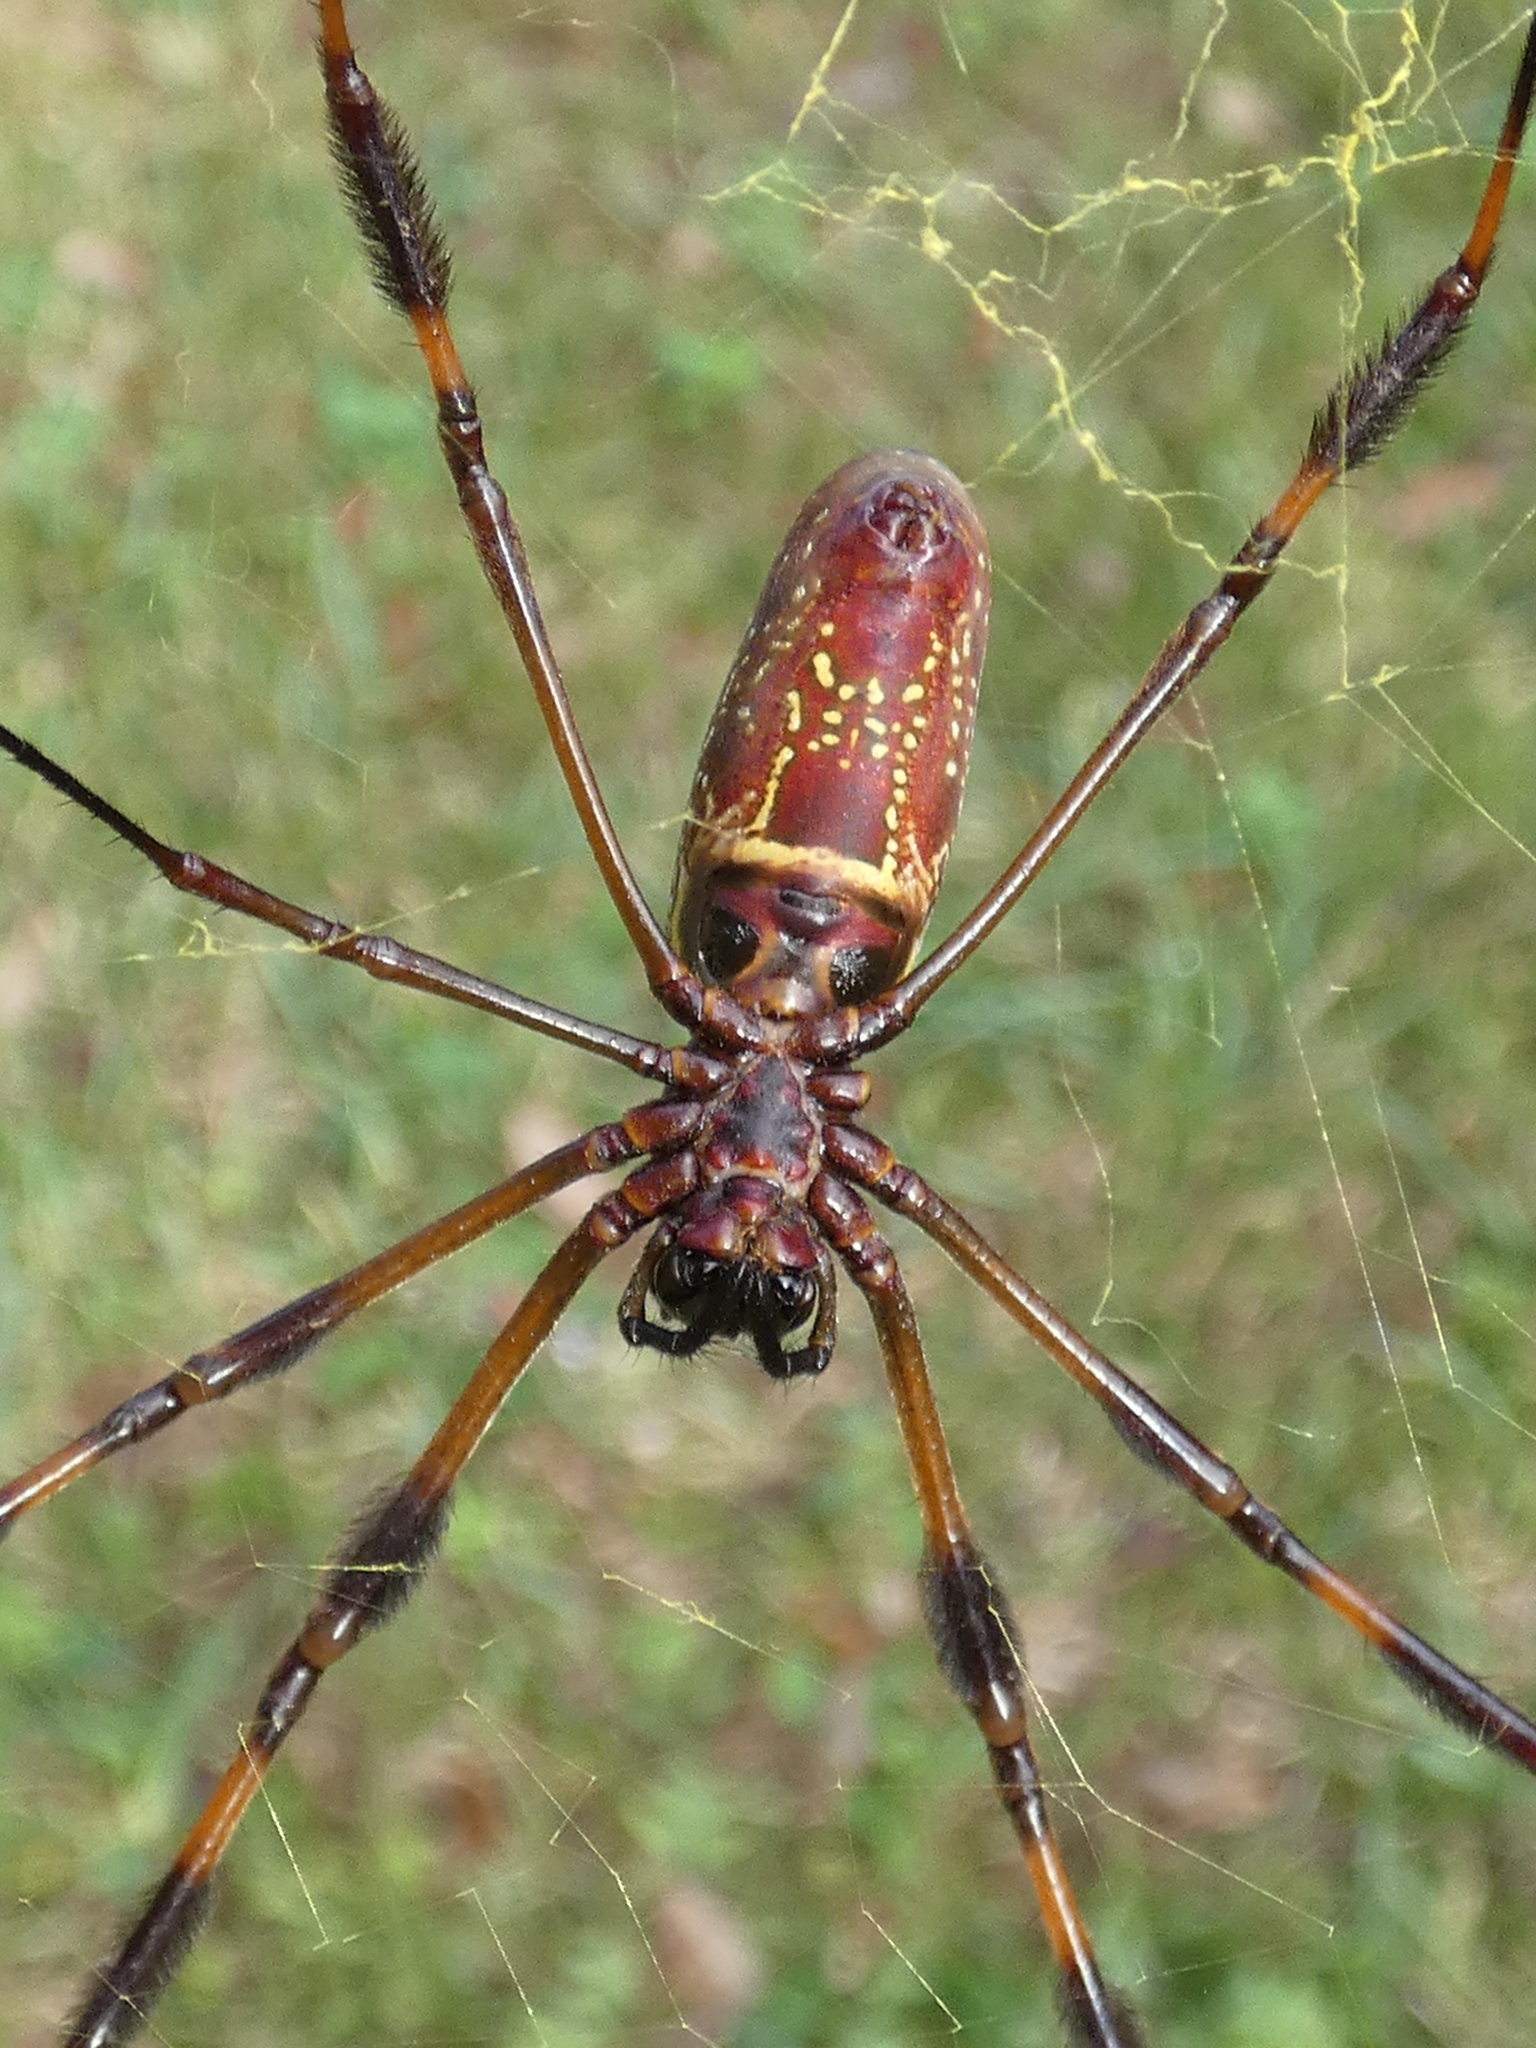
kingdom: Animalia
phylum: Arthropoda
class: Arachnida
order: Araneae
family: Araneidae
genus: Trichonephila
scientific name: Trichonephila clavipes
